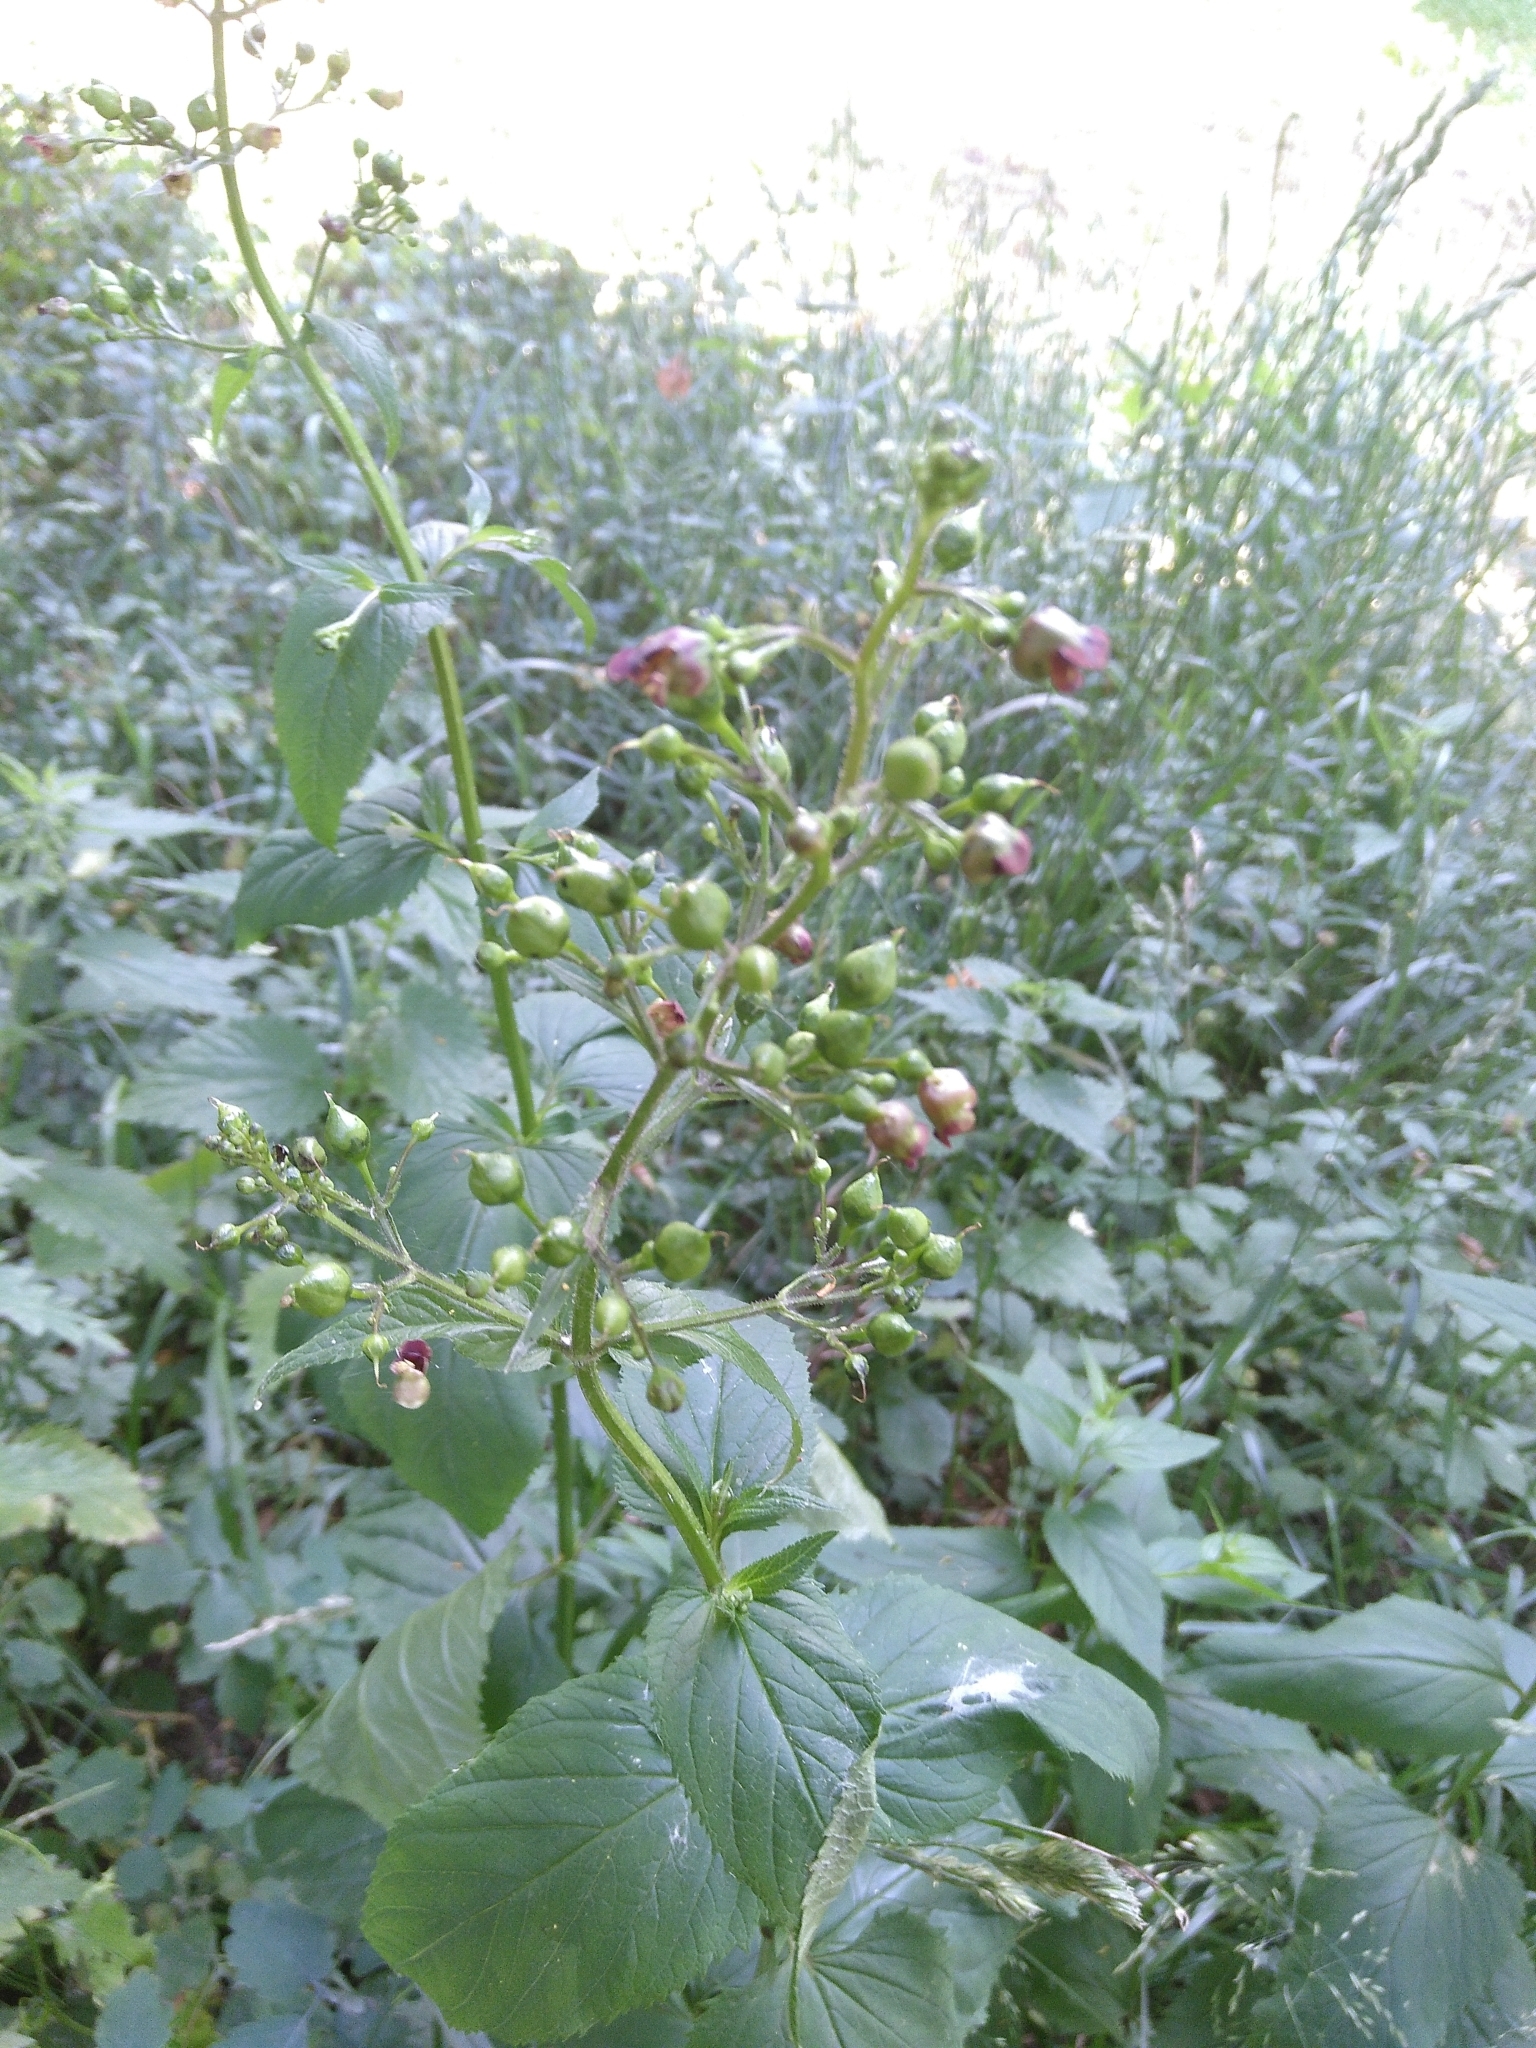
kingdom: Plantae
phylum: Tracheophyta
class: Magnoliopsida
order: Lamiales
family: Scrophulariaceae
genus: Scrophularia
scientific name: Scrophularia nodosa
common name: Common figwort
